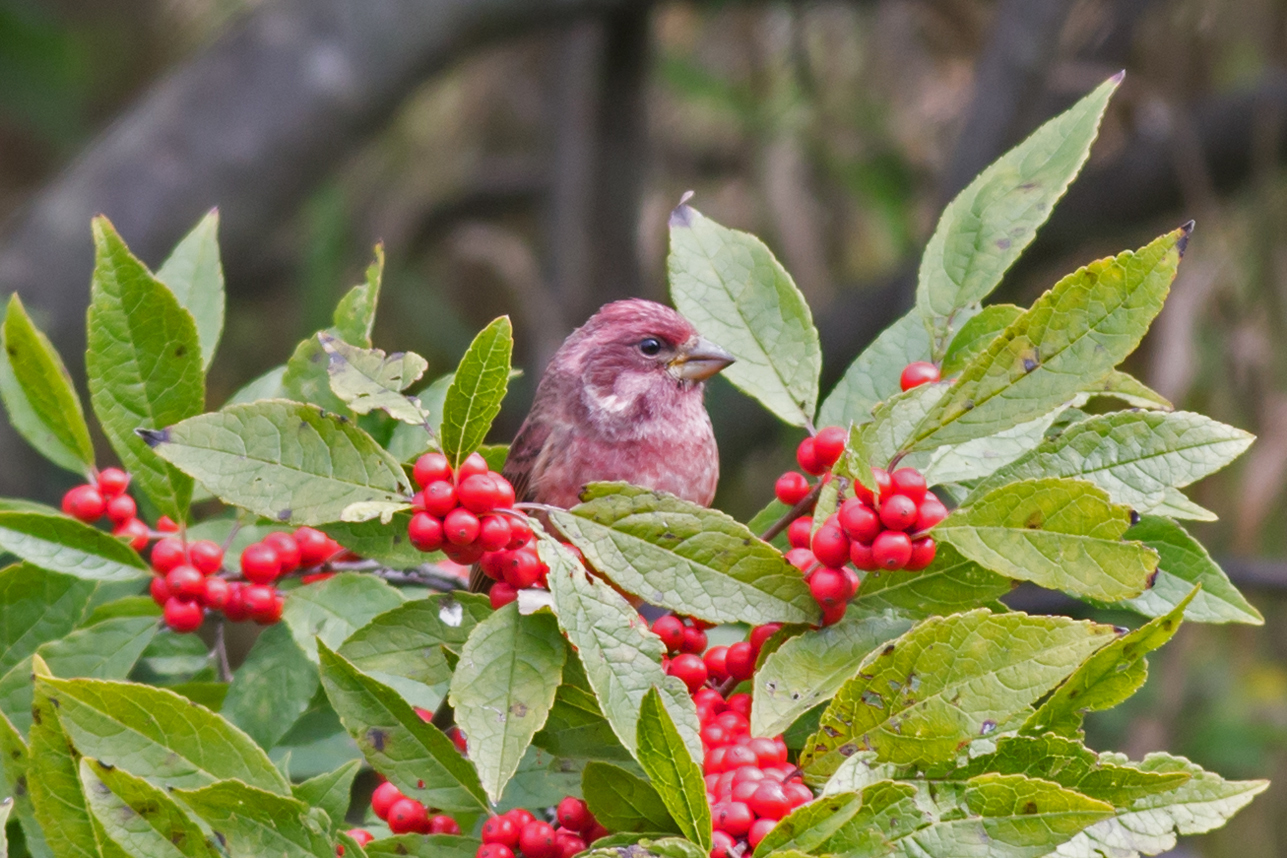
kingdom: Animalia
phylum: Chordata
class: Aves
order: Passeriformes
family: Fringillidae
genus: Haemorhous
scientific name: Haemorhous purpureus
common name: Purple finch
